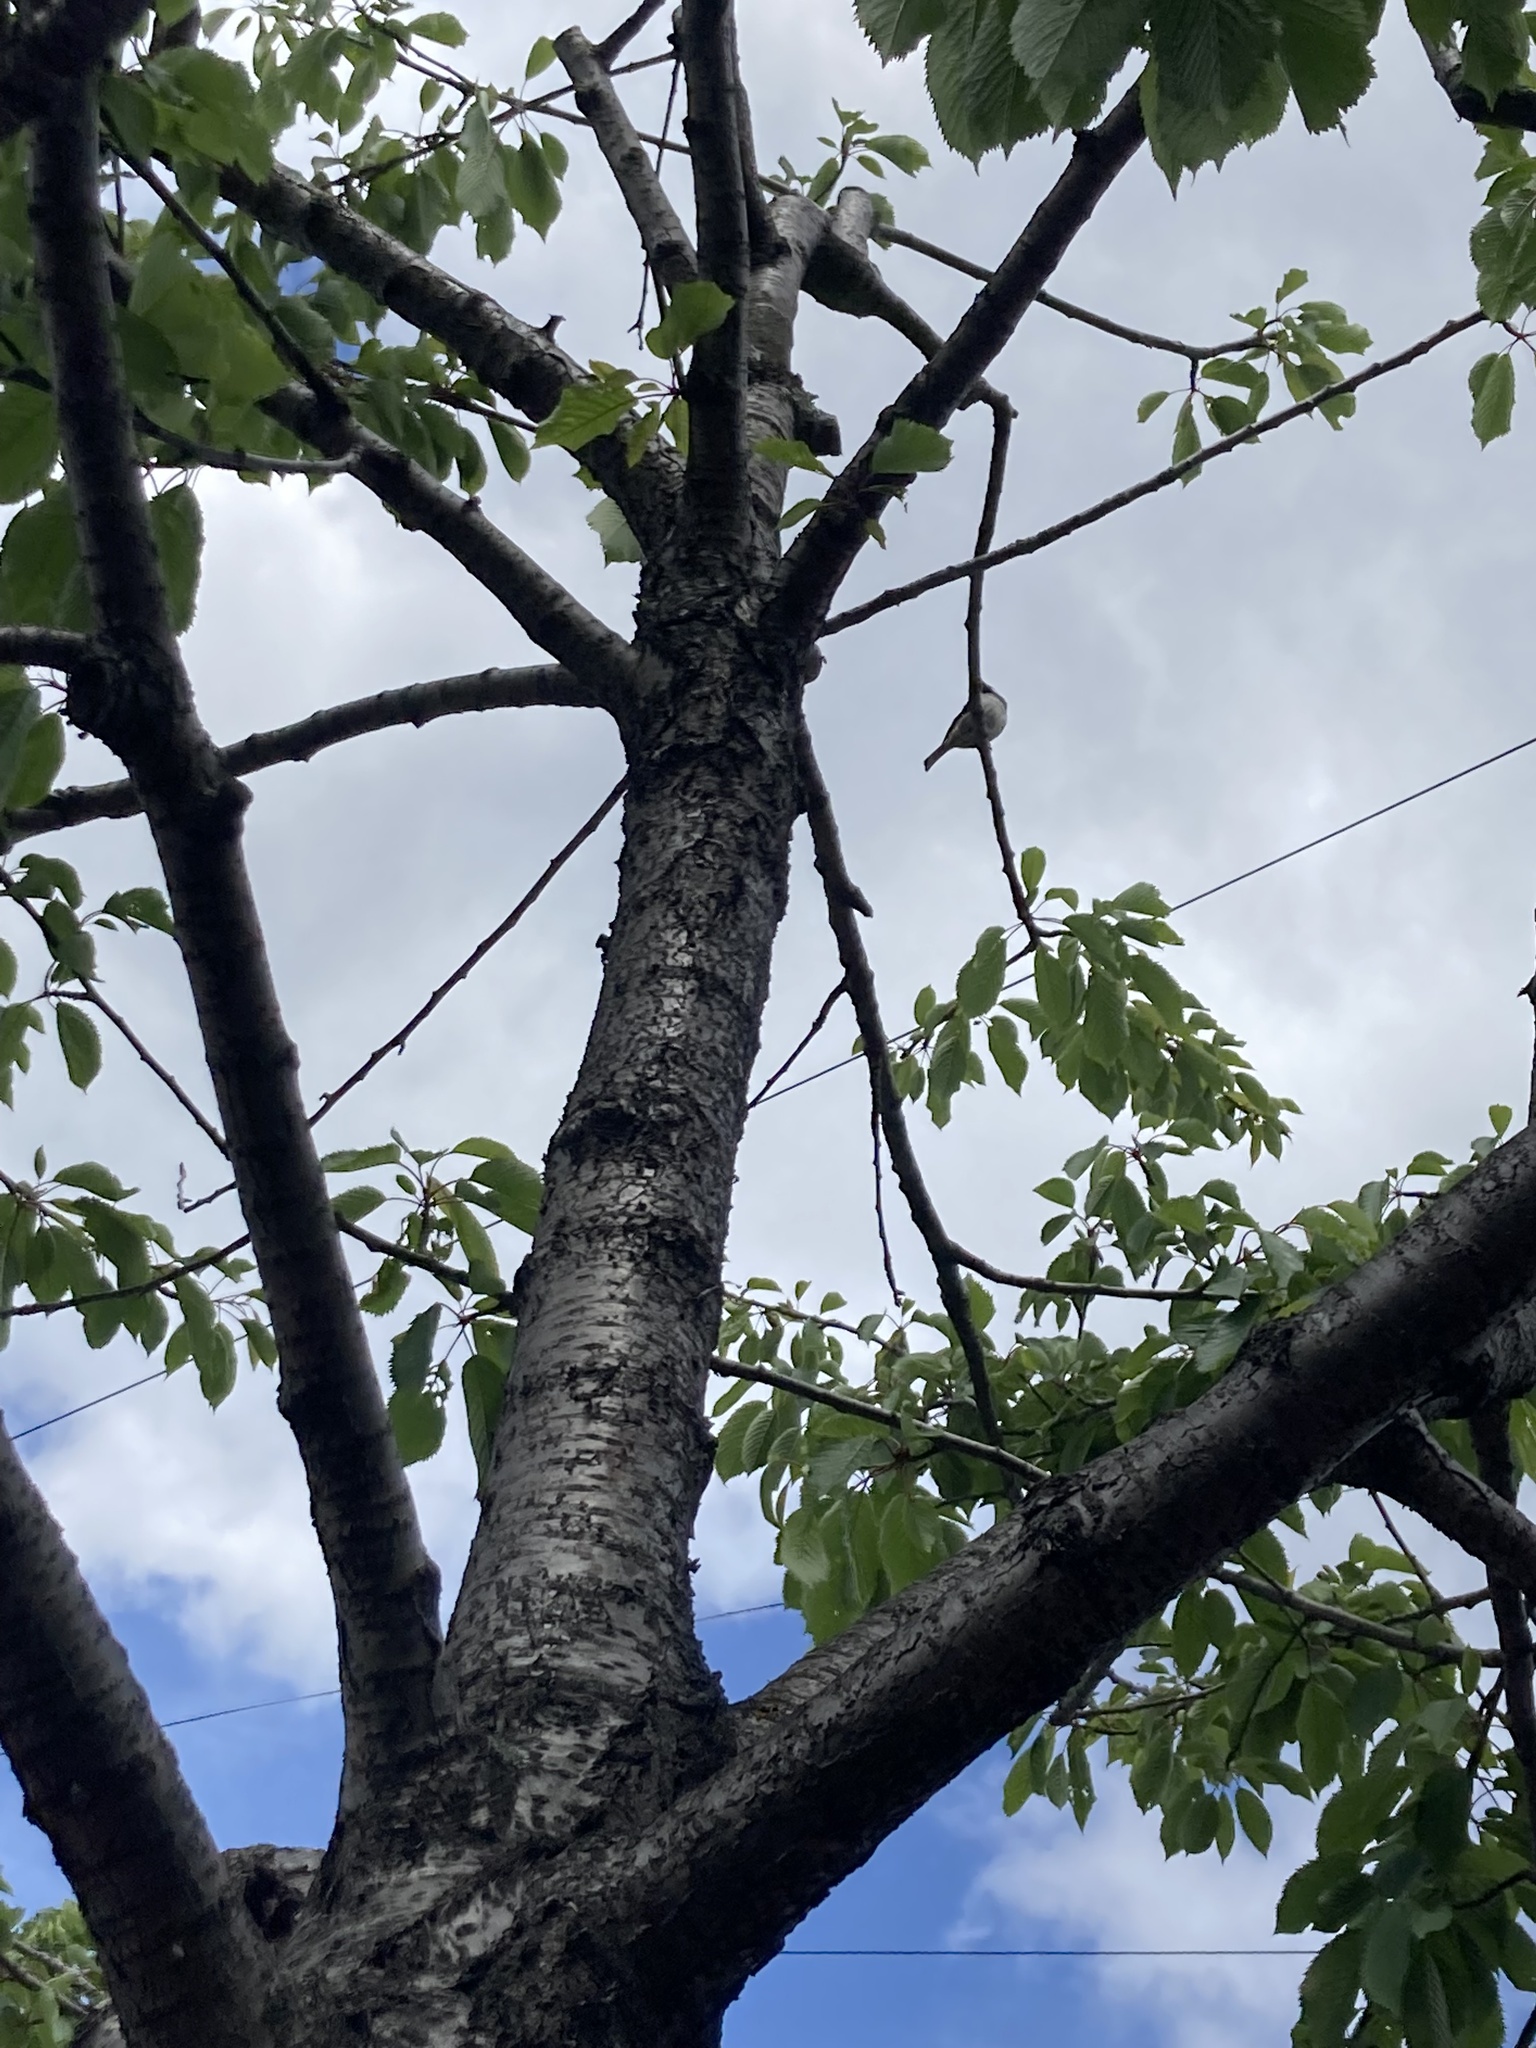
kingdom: Animalia
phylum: Chordata
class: Aves
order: Passeriformes
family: Passeridae
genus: Passer
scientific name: Passer domesticus
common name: House sparrow
